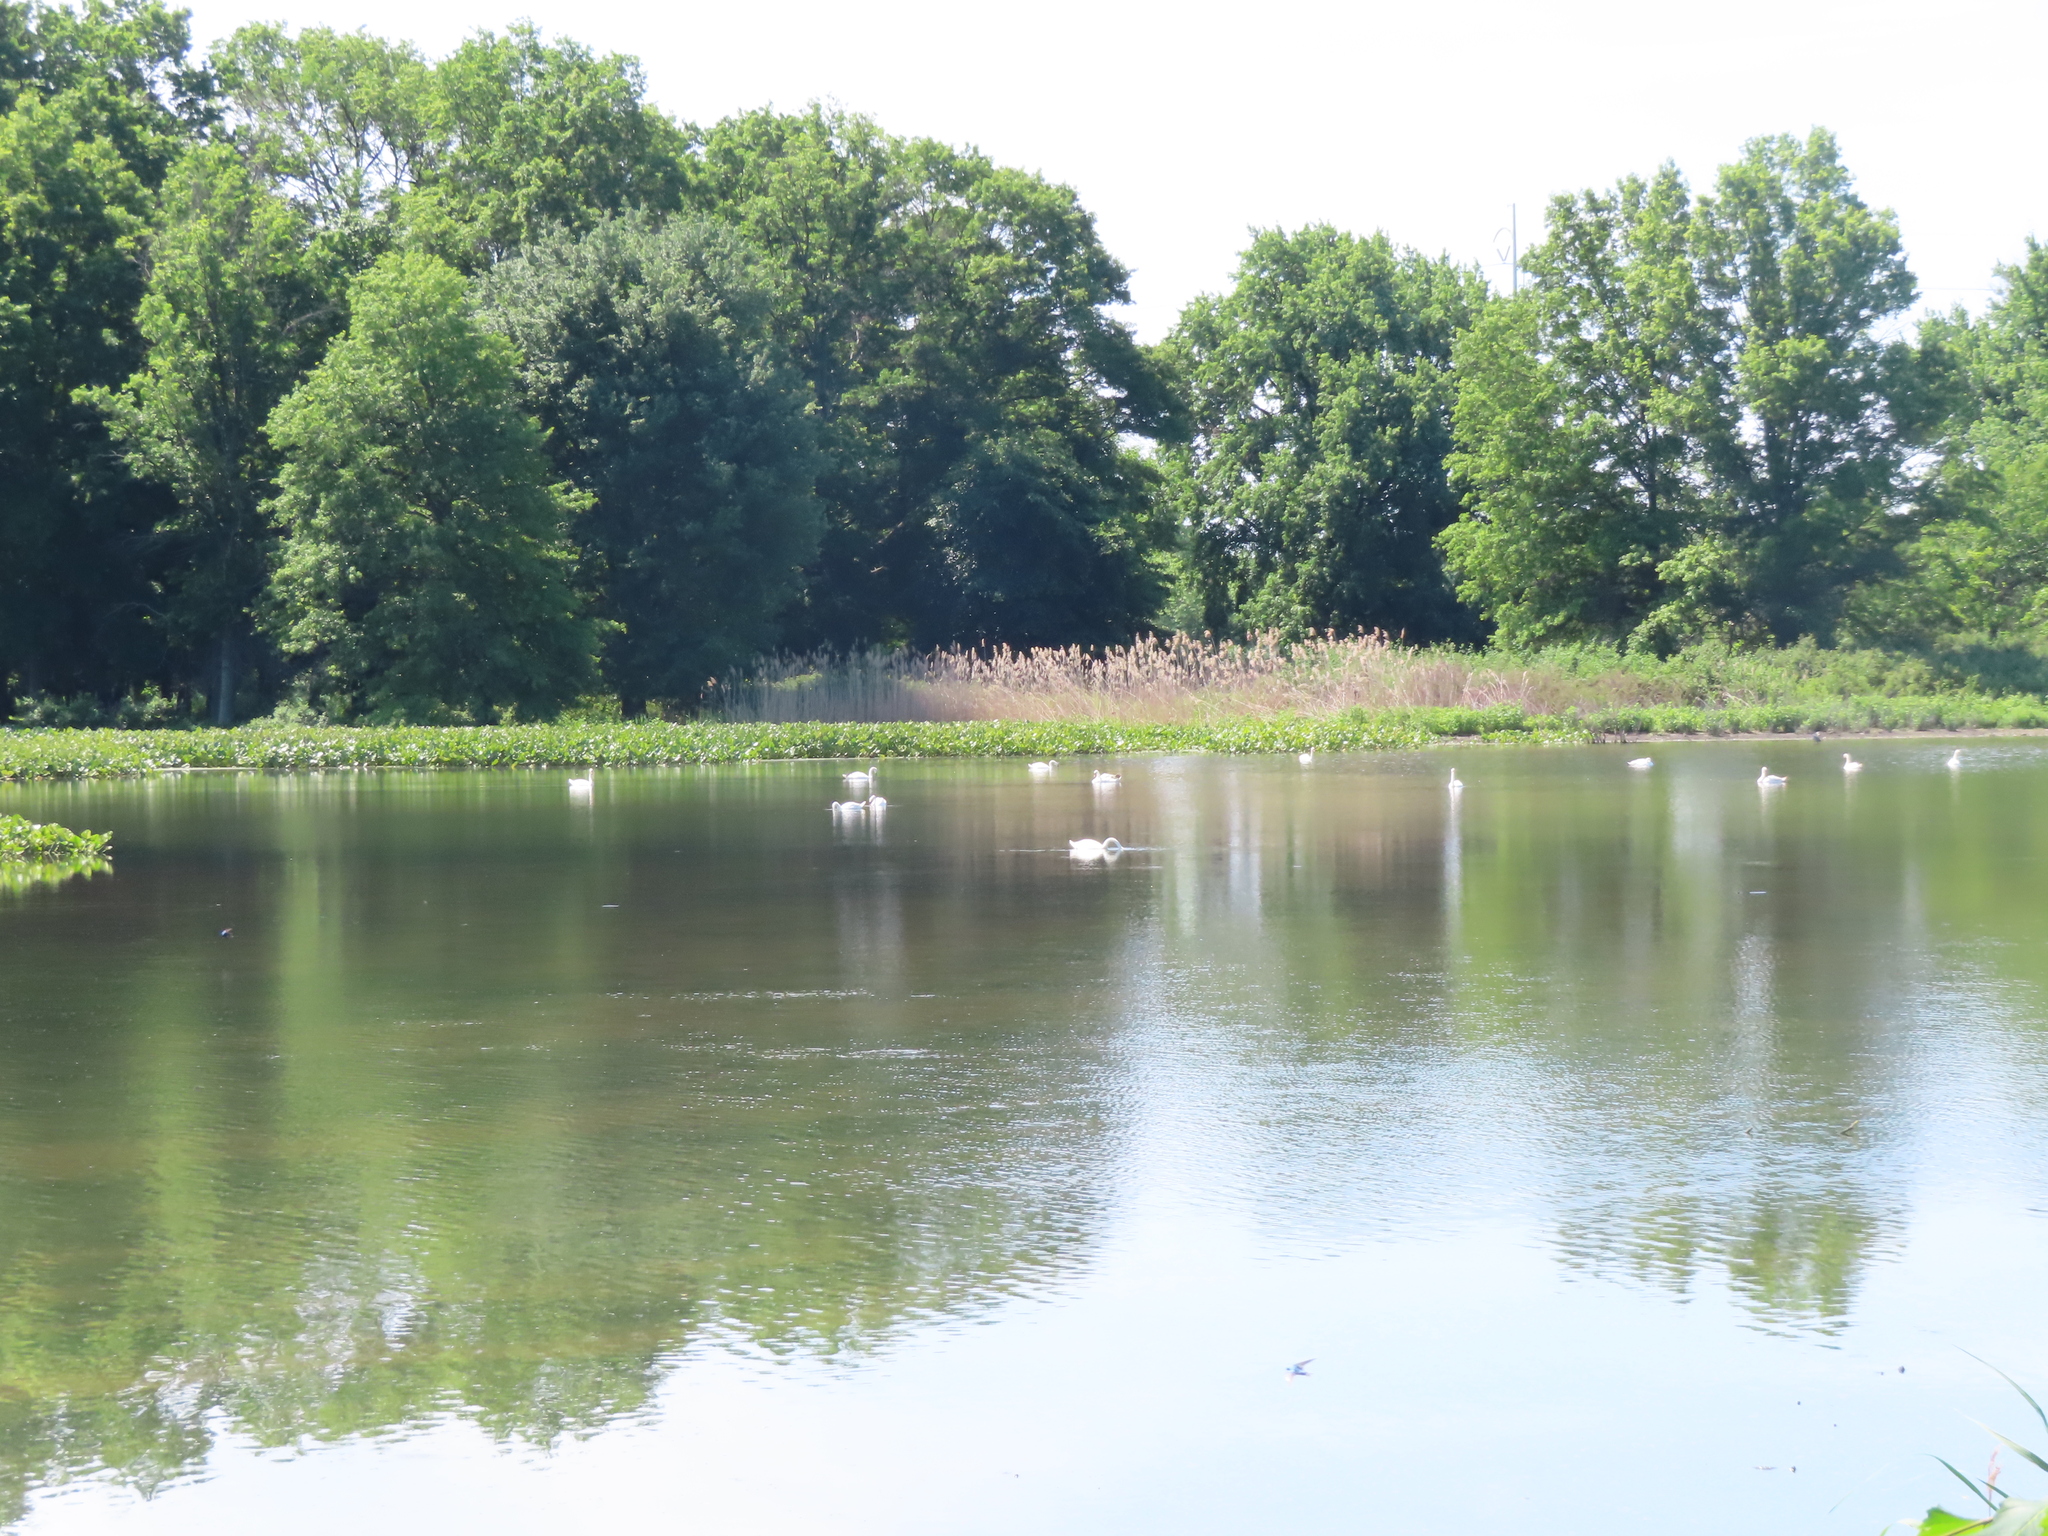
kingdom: Animalia
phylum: Chordata
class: Aves
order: Anseriformes
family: Anatidae
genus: Cygnus
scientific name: Cygnus olor
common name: Mute swan
